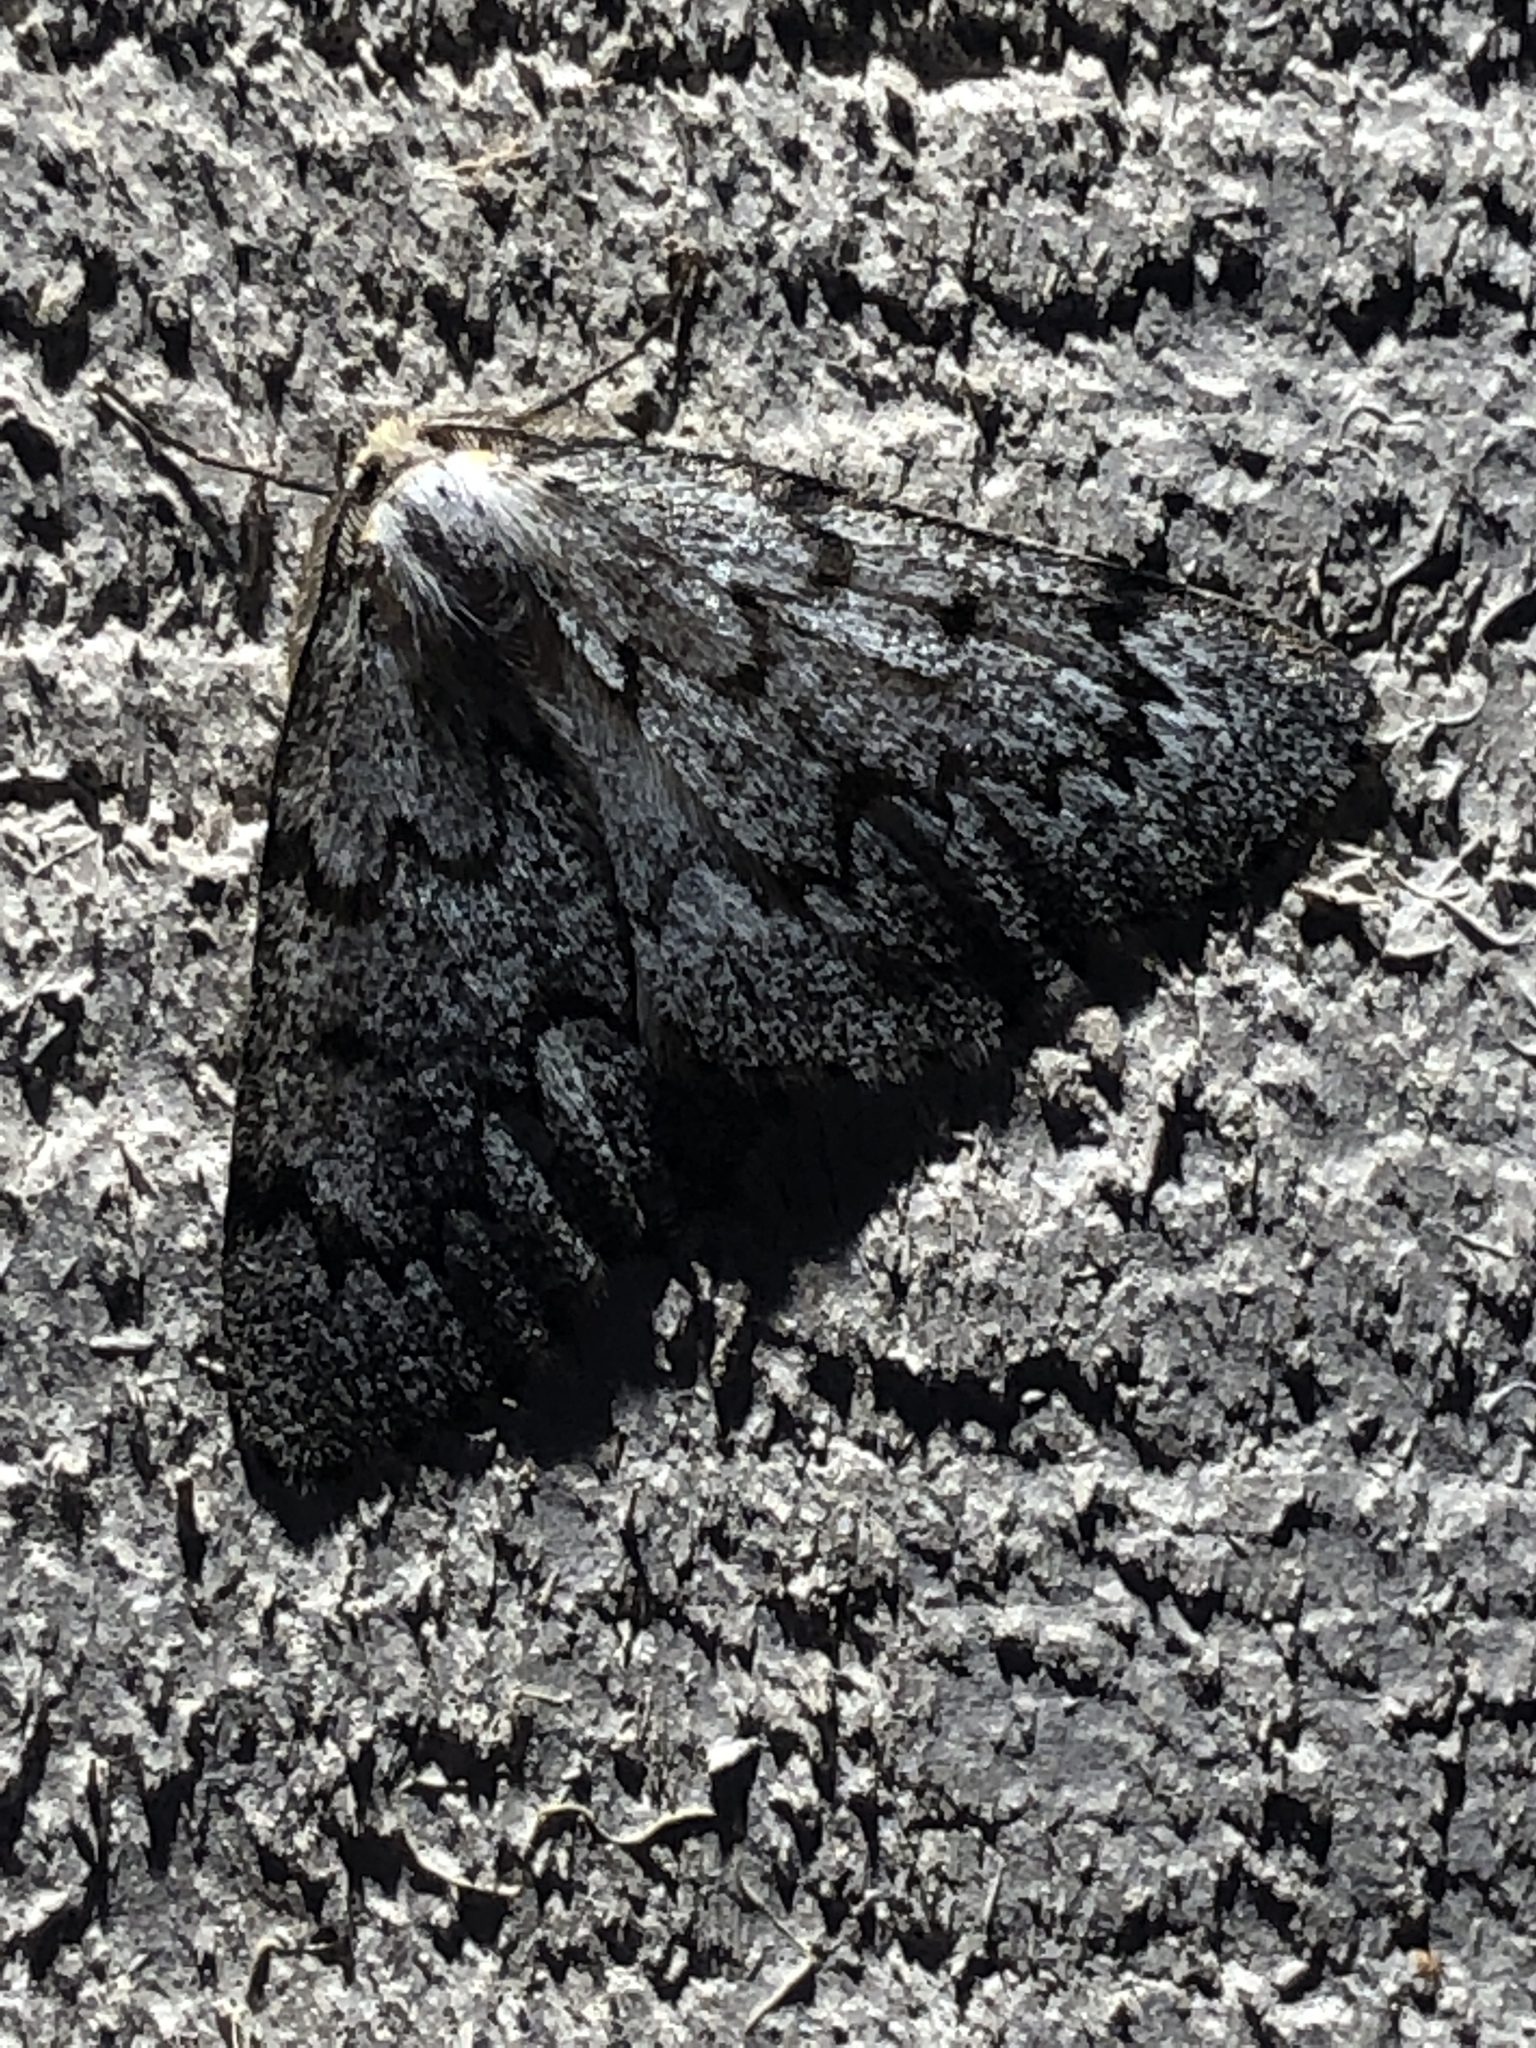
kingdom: Animalia
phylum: Arthropoda
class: Insecta
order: Lepidoptera
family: Geometridae
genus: Nepytia
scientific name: Nepytia canosaria
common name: False hemlock looper
